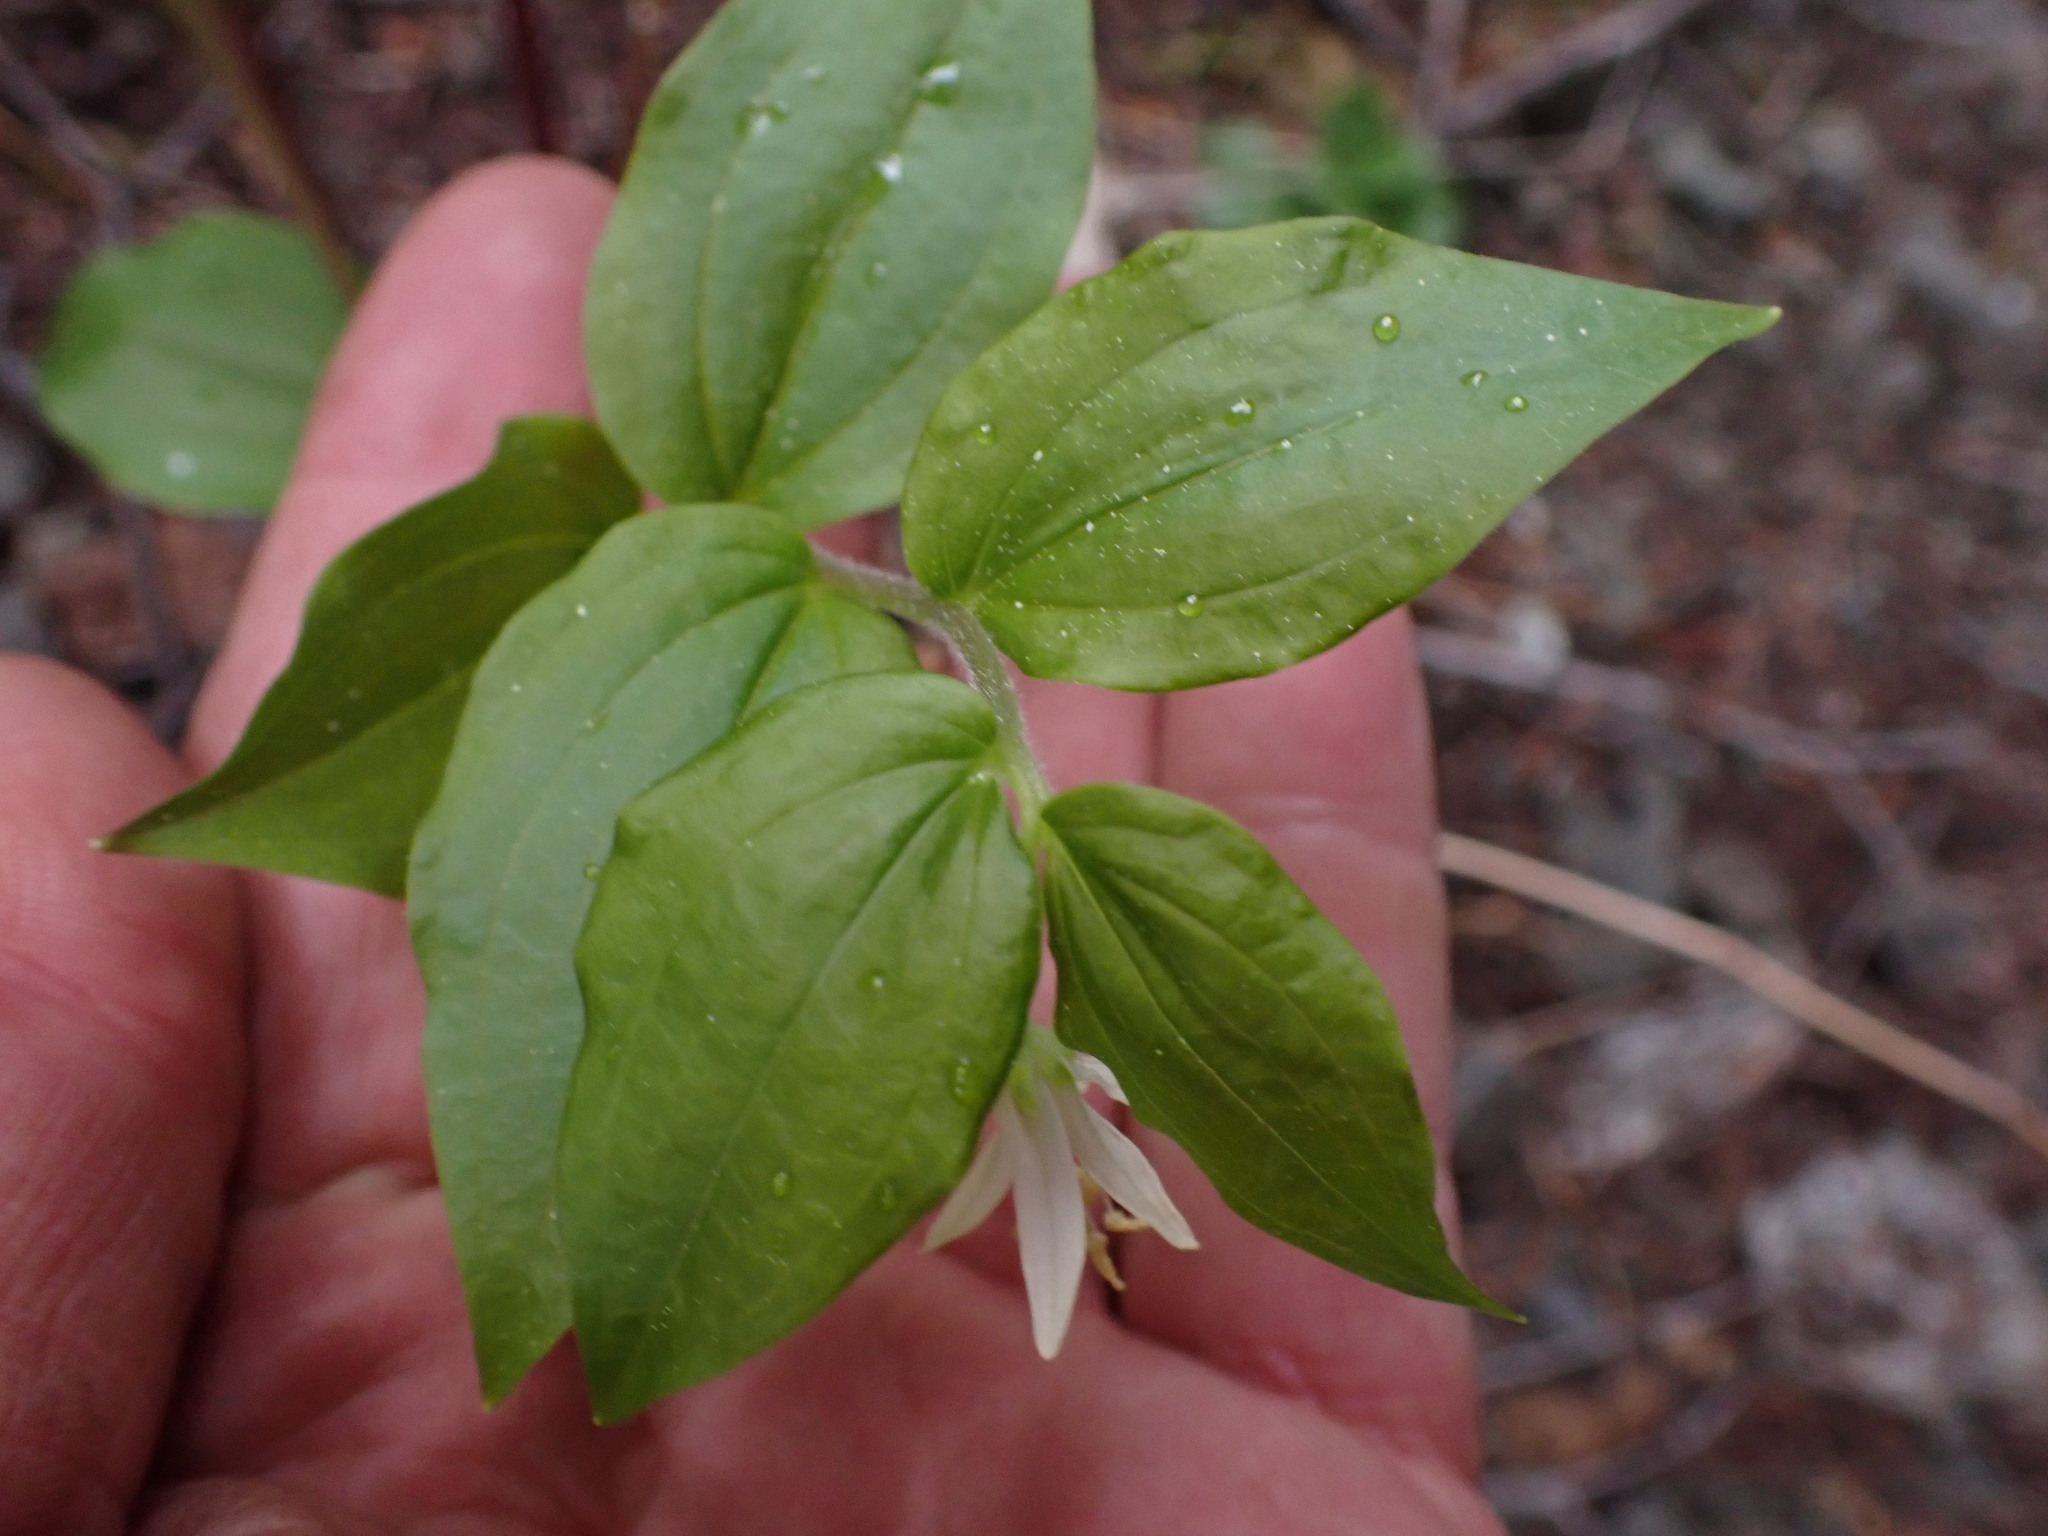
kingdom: Plantae
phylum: Tracheophyta
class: Liliopsida
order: Liliales
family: Liliaceae
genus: Prosartes
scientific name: Prosartes trachycarpa
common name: Rough-fruit fairy-bells
